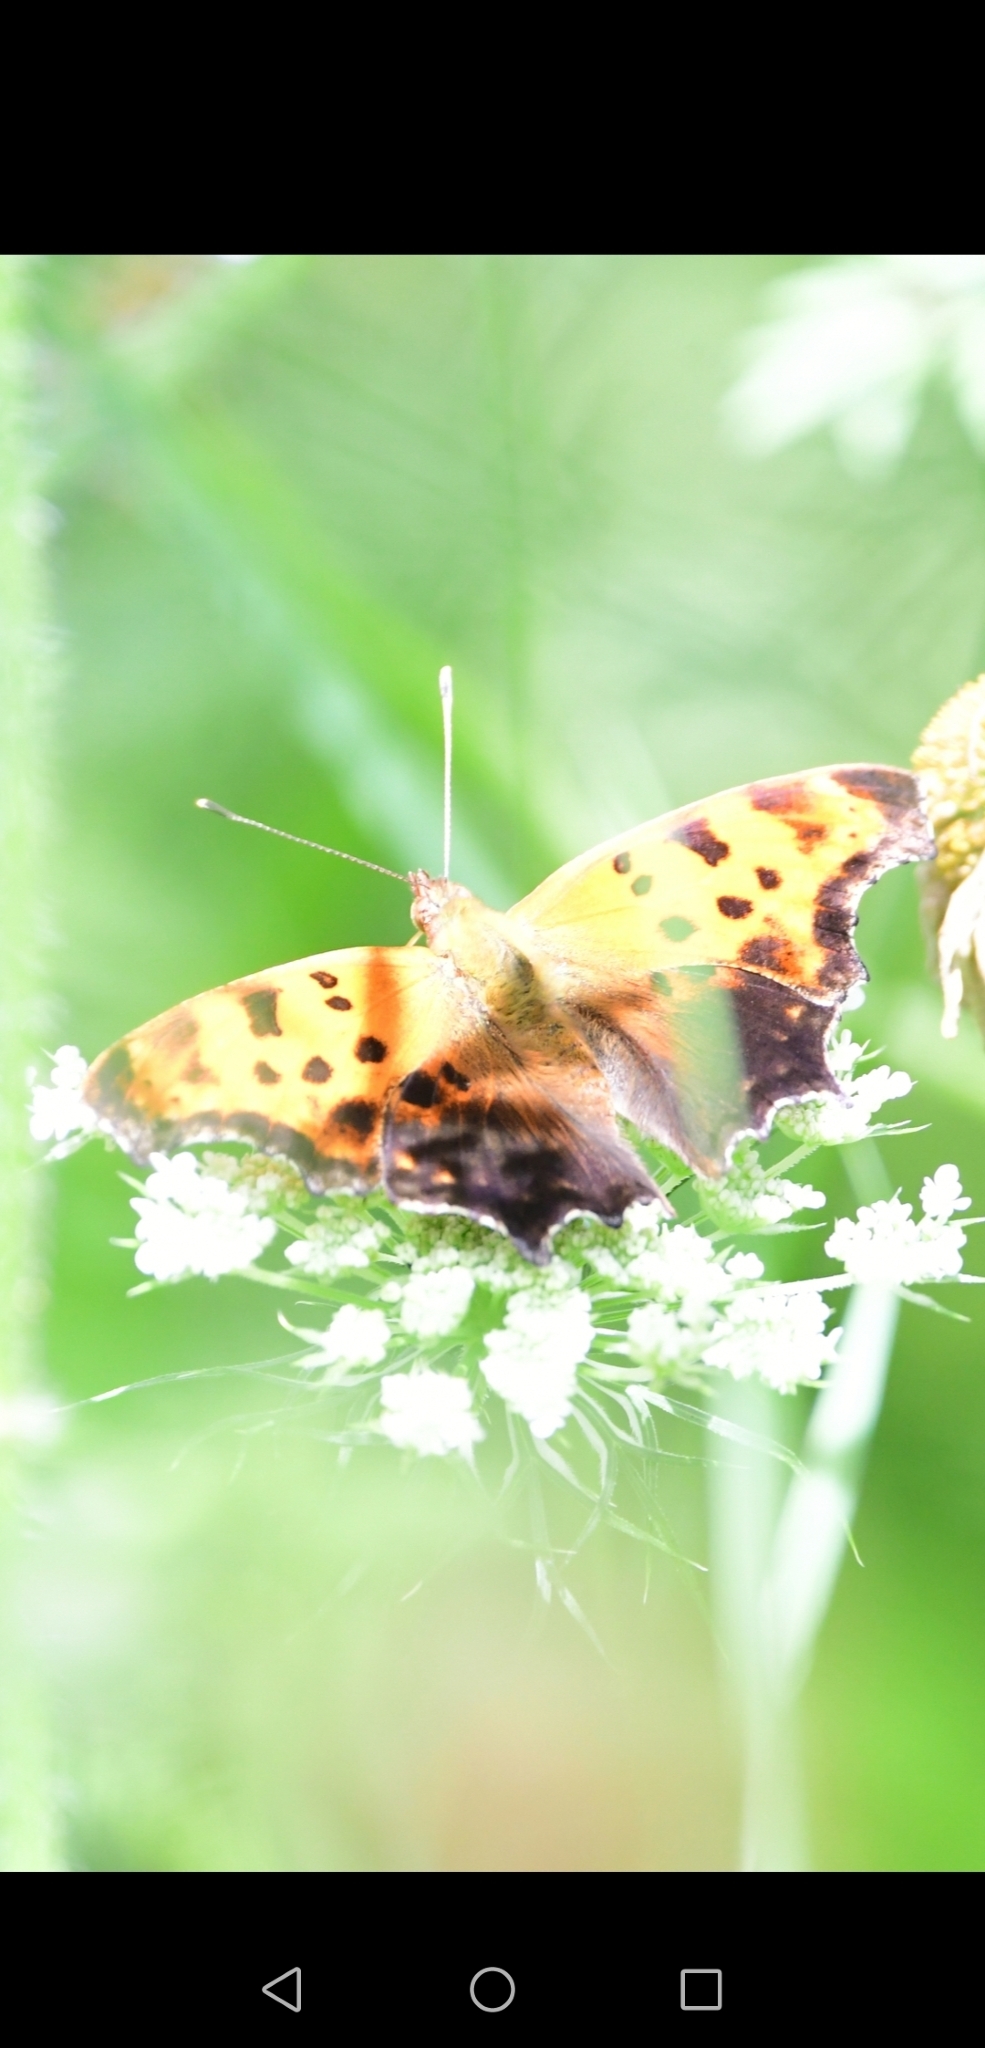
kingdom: Animalia
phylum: Arthropoda
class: Insecta
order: Lepidoptera
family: Nymphalidae
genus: Polygonia
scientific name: Polygonia comma
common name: Eastern comma
